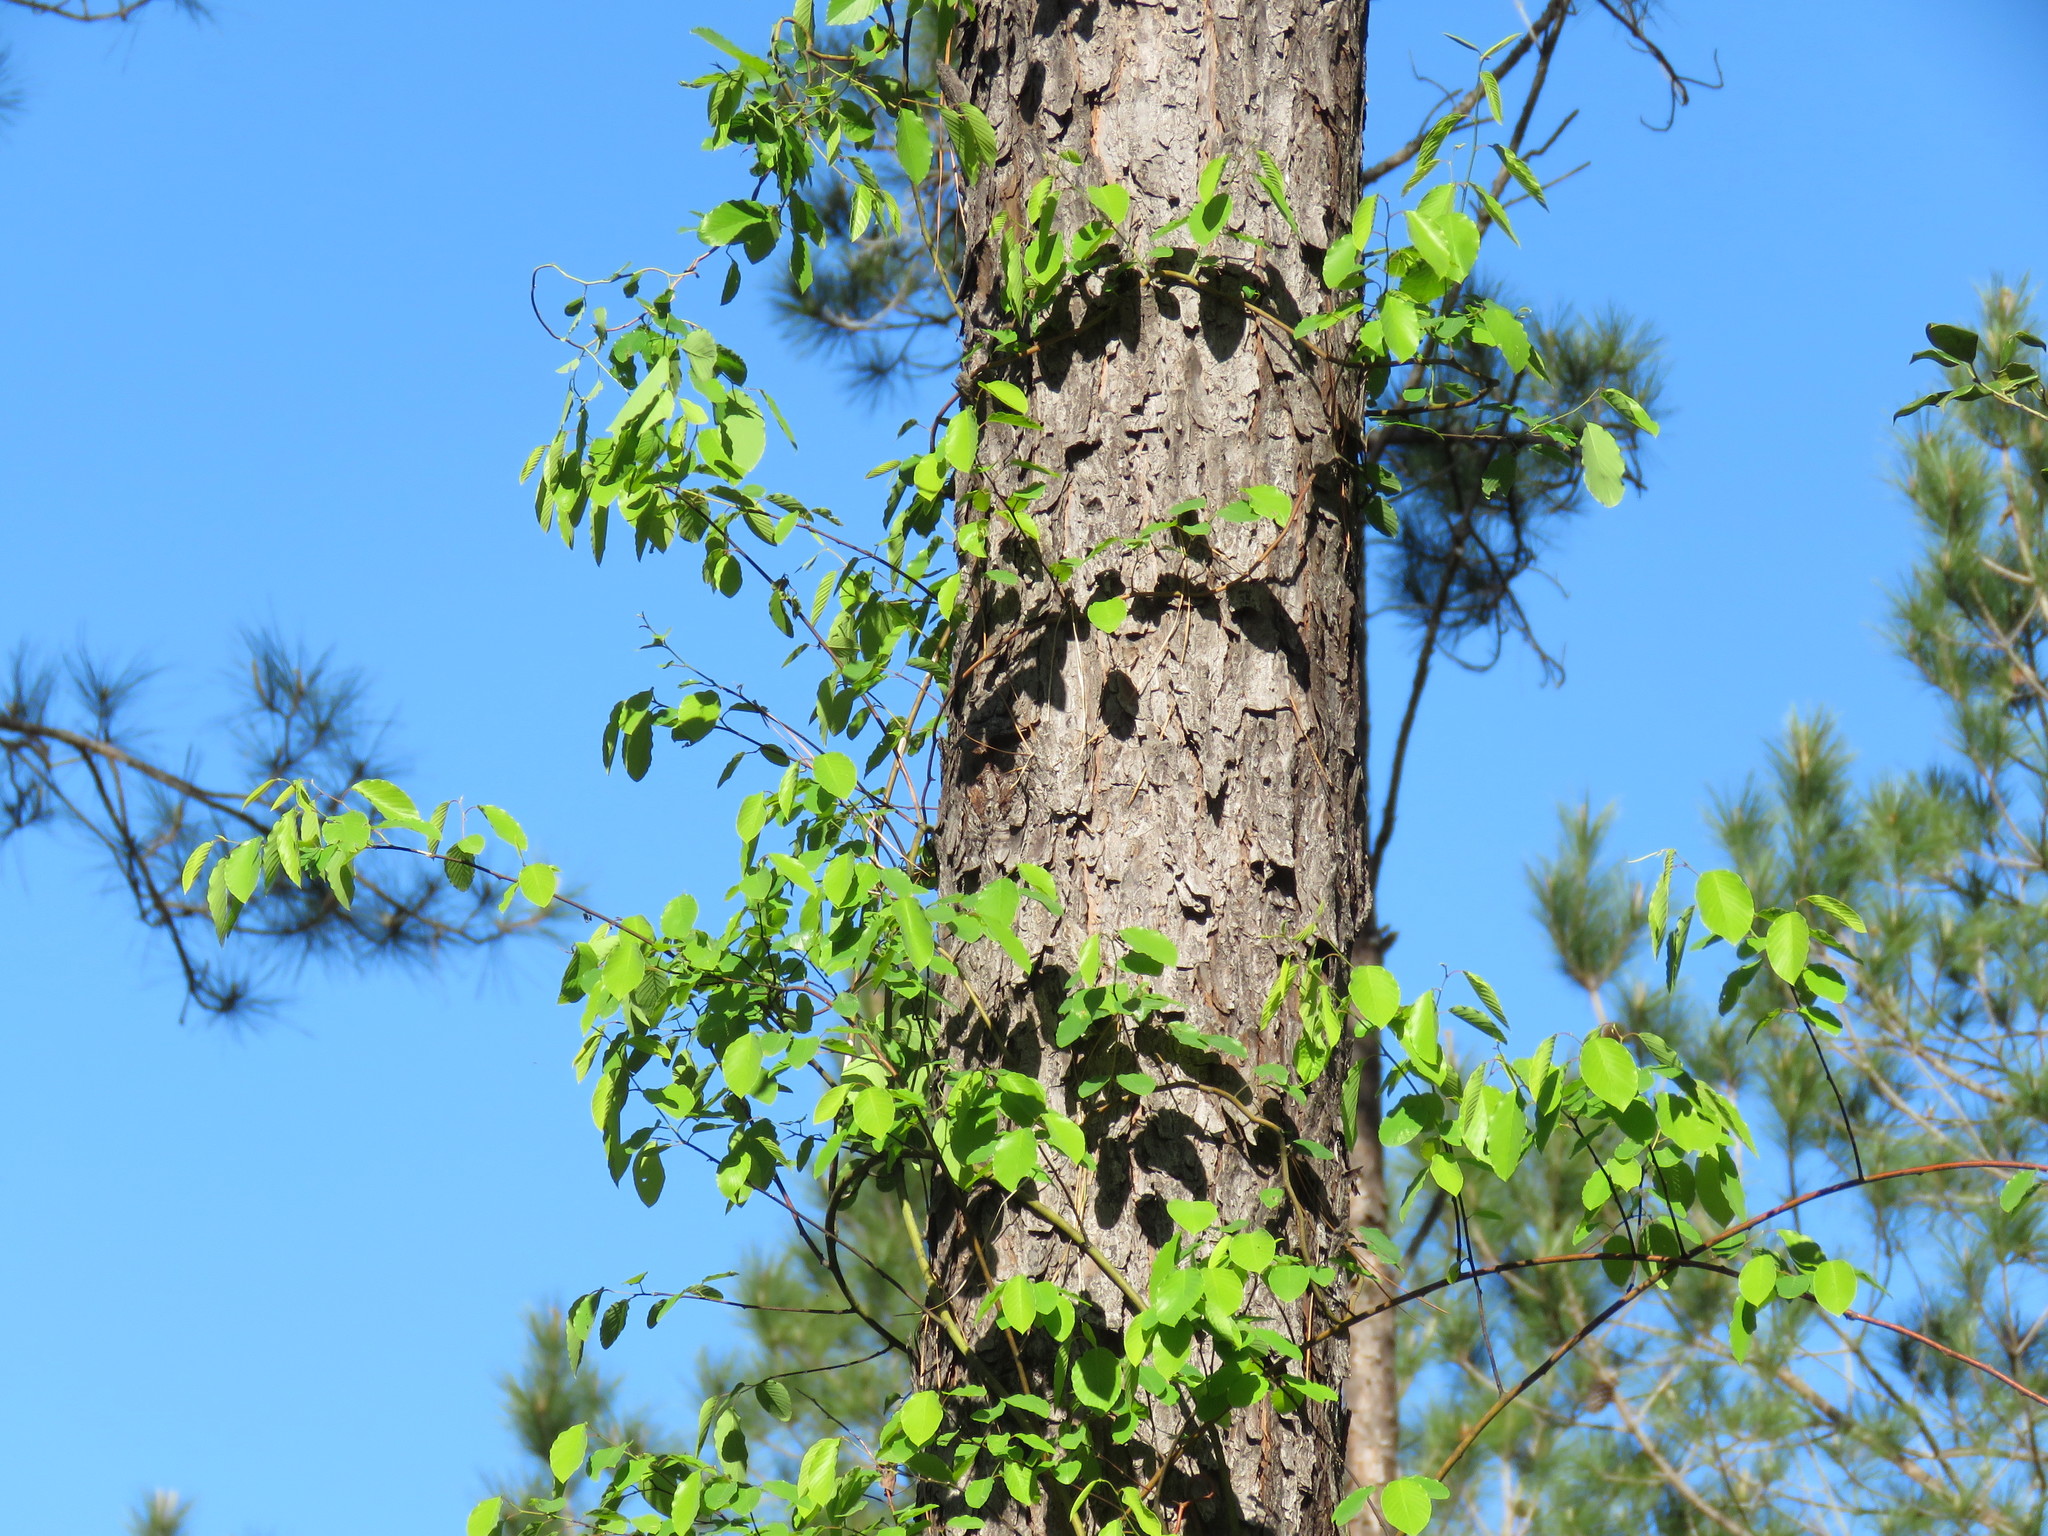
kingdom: Plantae
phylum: Tracheophyta
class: Magnoliopsida
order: Rosales
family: Rhamnaceae
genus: Berchemia
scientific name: Berchemia scandens
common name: Supplejack
